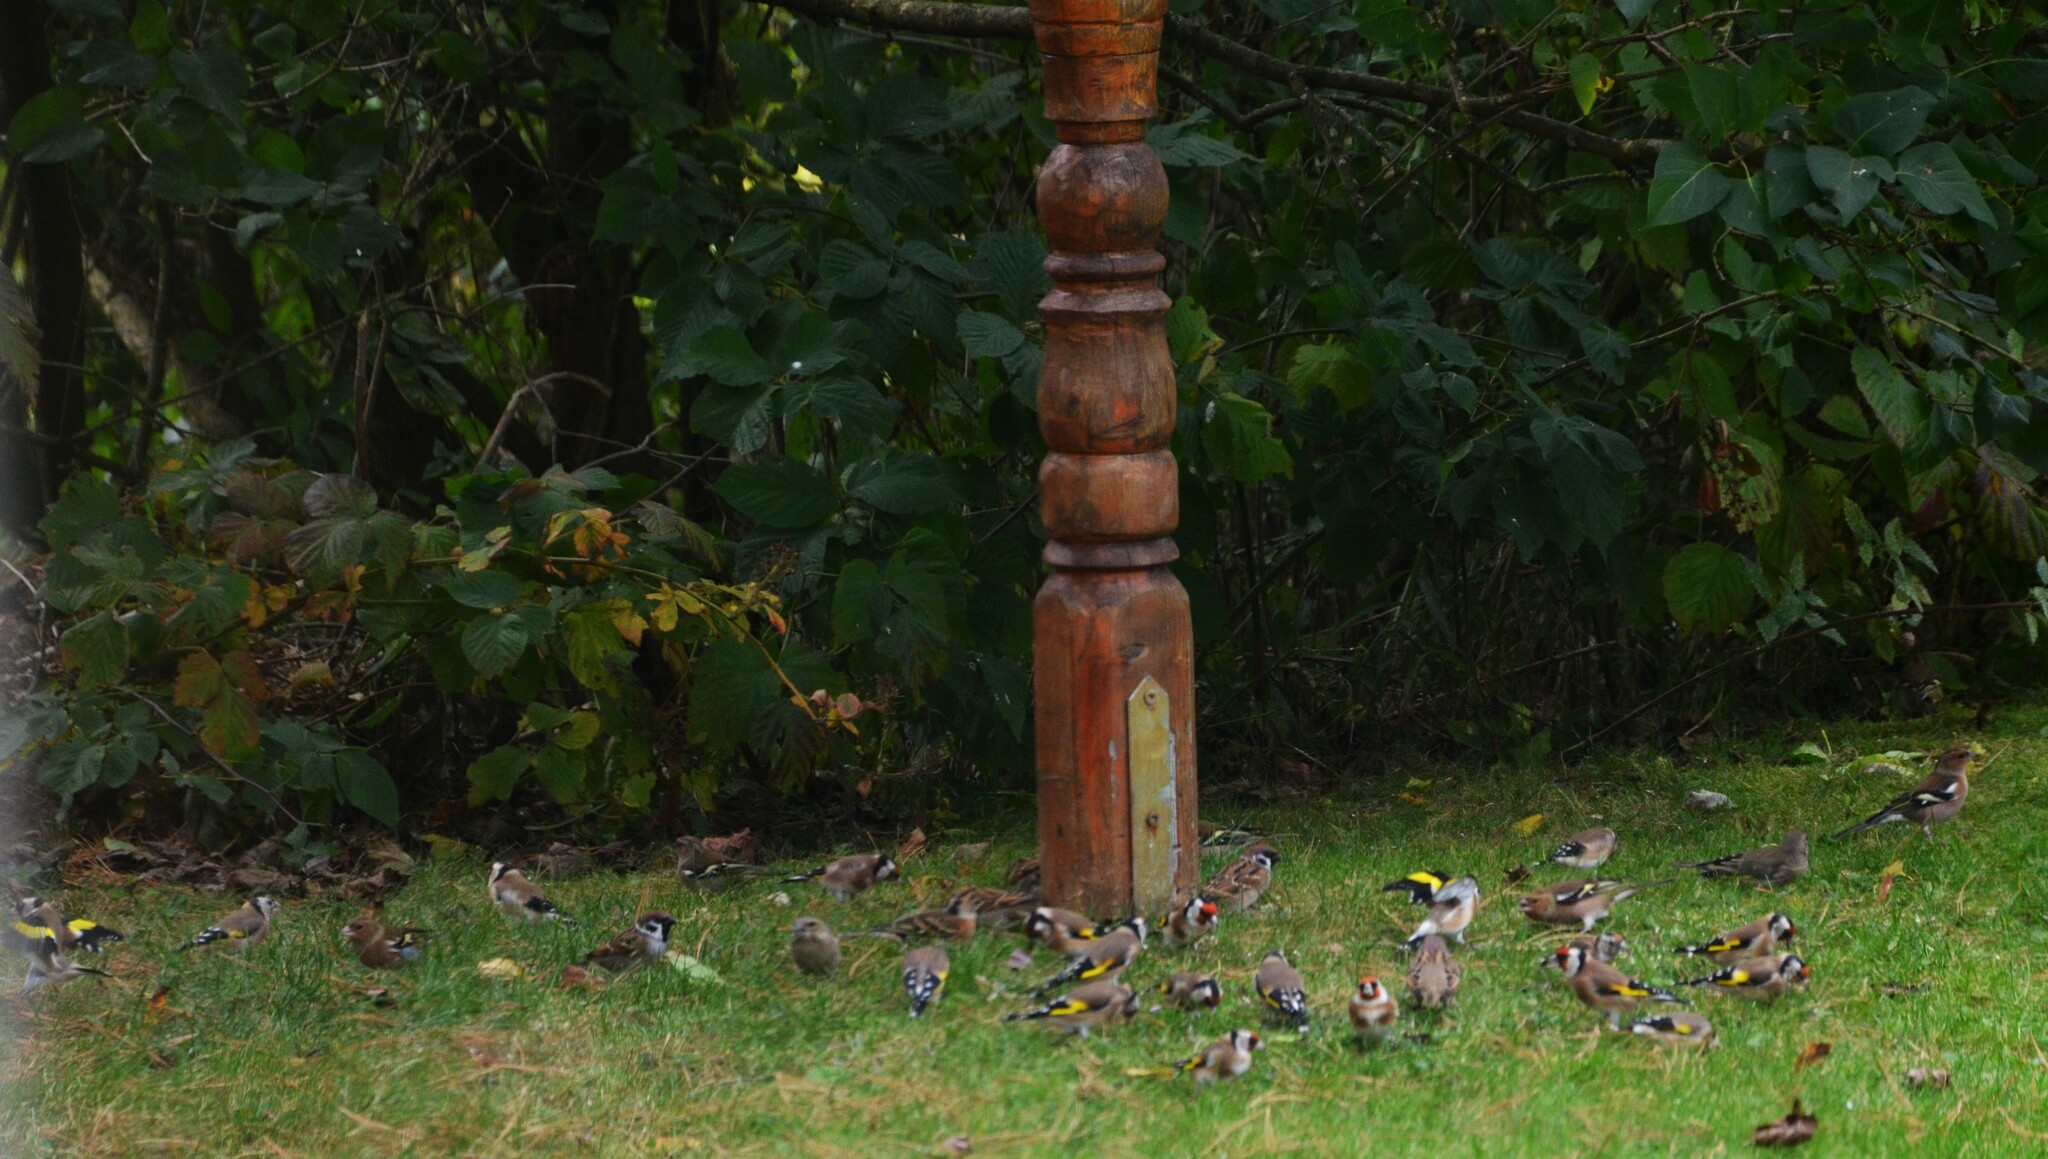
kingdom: Animalia
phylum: Chordata
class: Aves
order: Passeriformes
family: Fringillidae
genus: Carduelis
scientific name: Carduelis carduelis
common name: European goldfinch
